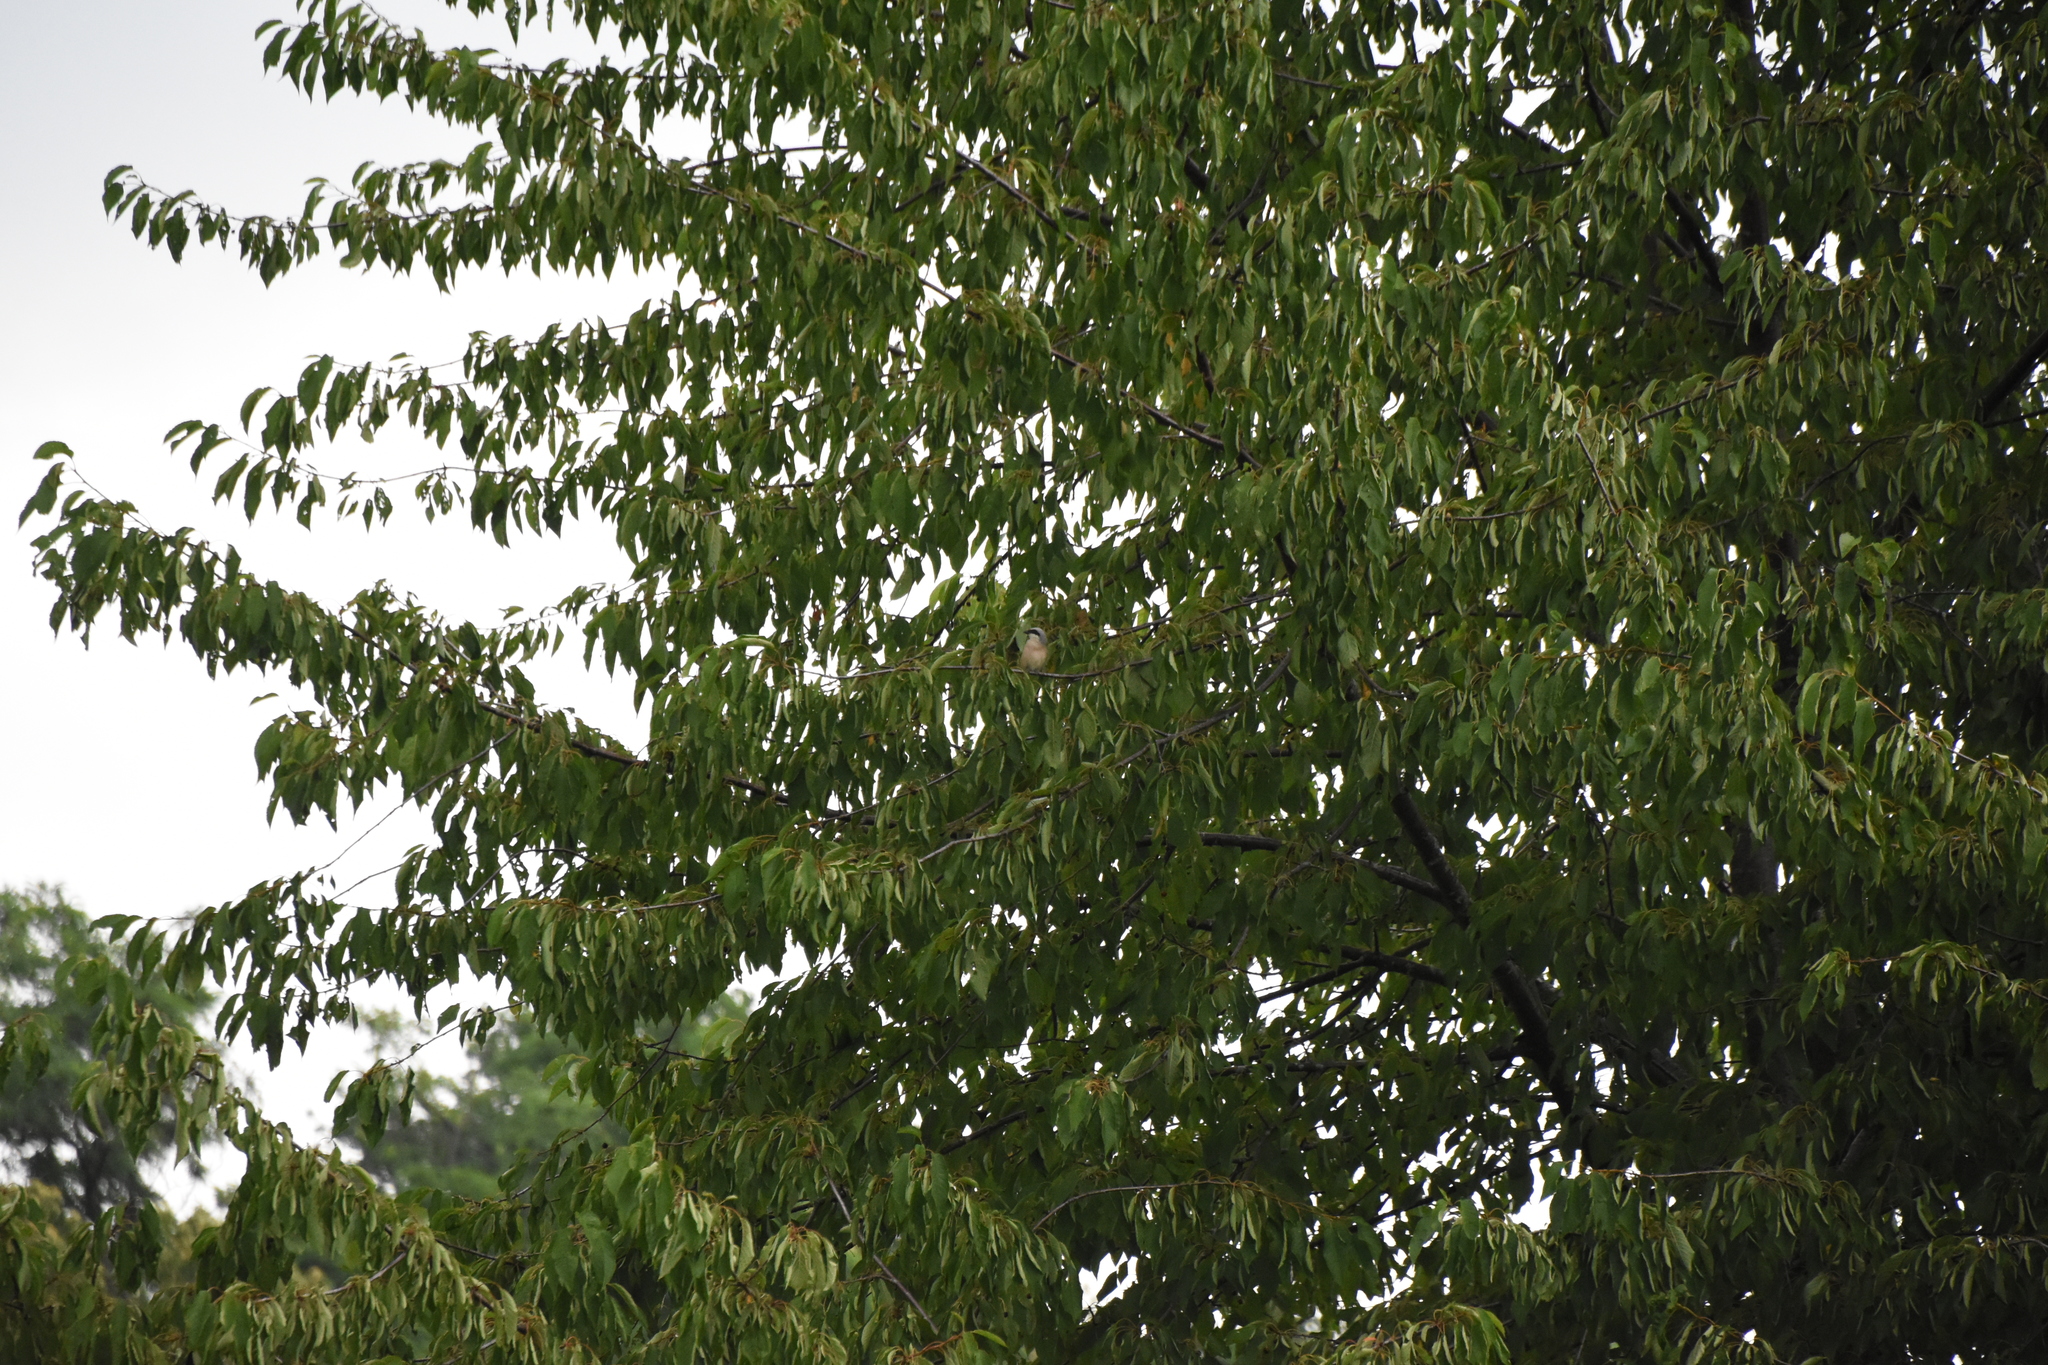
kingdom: Animalia
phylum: Chordata
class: Aves
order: Passeriformes
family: Laniidae
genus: Lanius
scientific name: Lanius collurio
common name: Red-backed shrike
